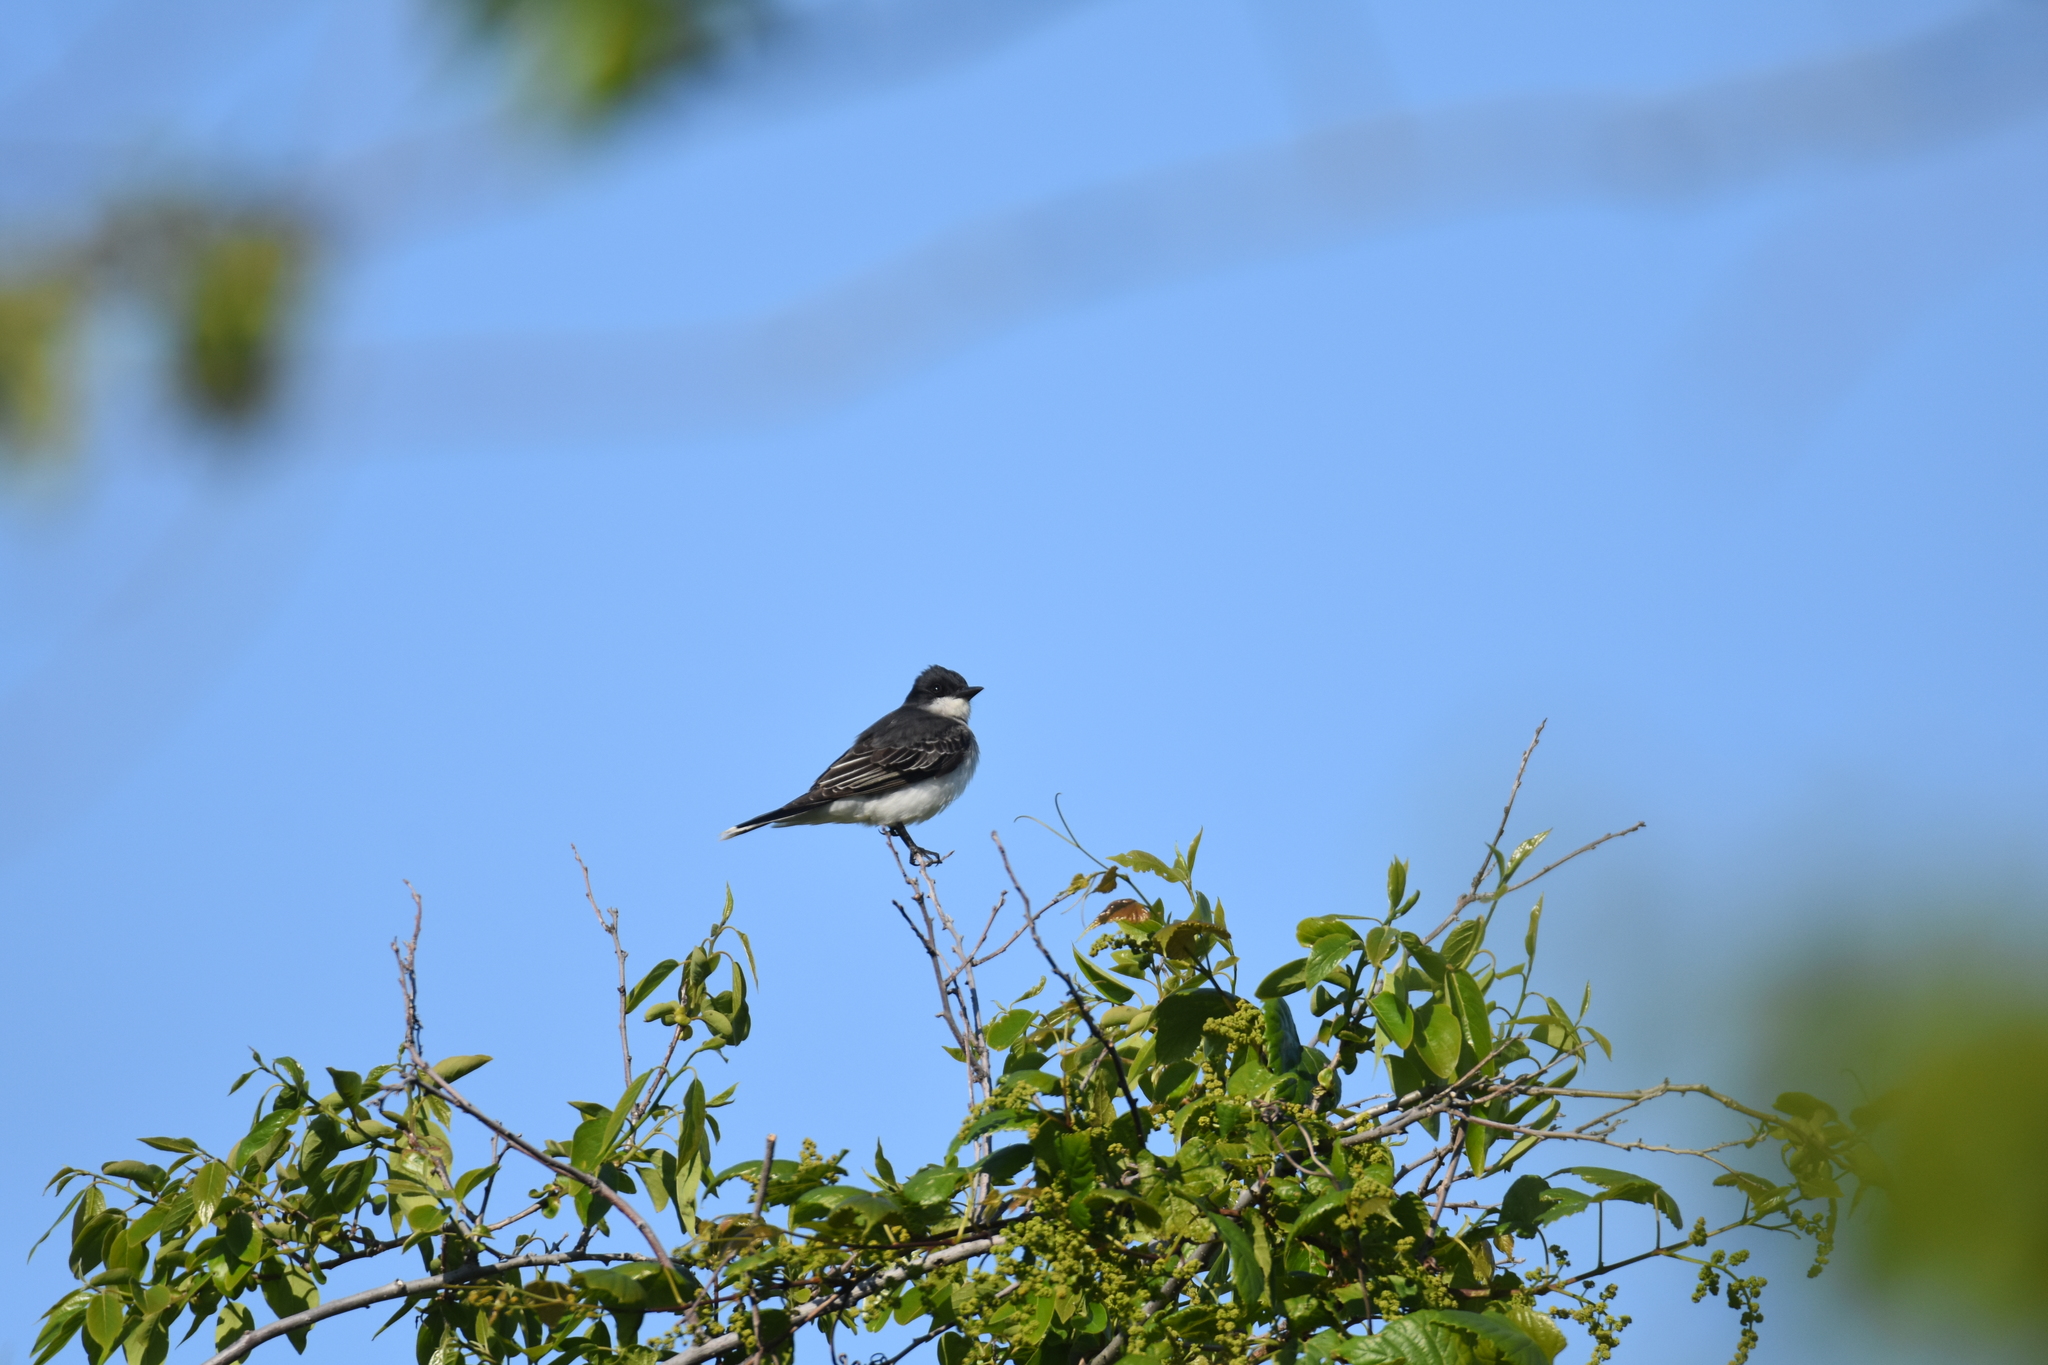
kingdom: Animalia
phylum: Chordata
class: Aves
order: Passeriformes
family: Tyrannidae
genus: Tyrannus
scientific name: Tyrannus tyrannus
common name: Eastern kingbird
